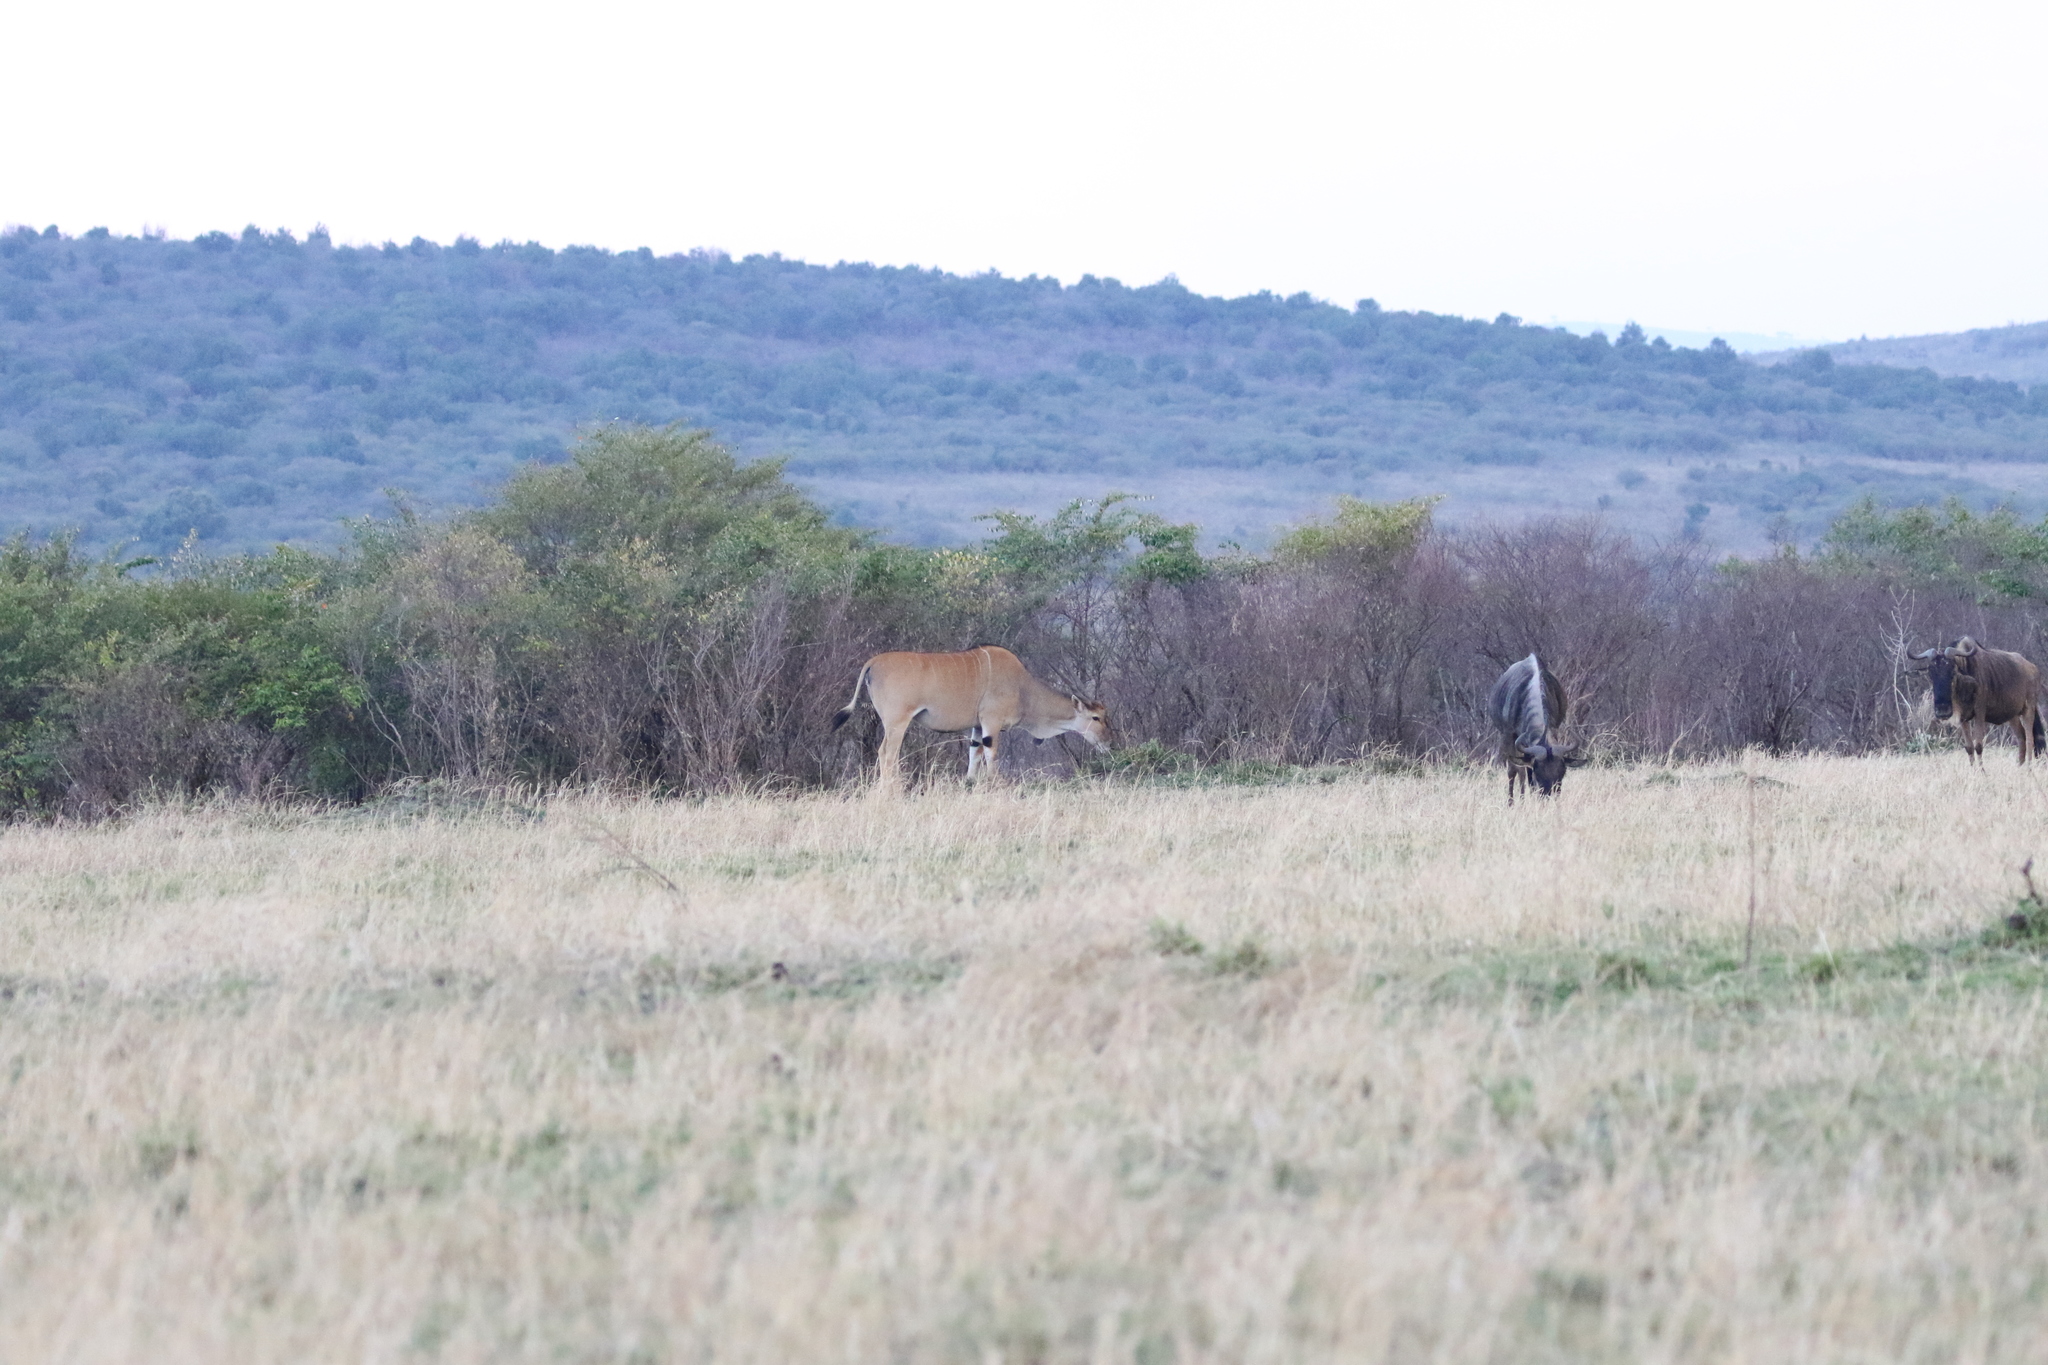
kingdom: Animalia
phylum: Chordata
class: Mammalia
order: Artiodactyla
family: Bovidae
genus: Taurotragus
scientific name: Taurotragus oryx
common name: Common eland
